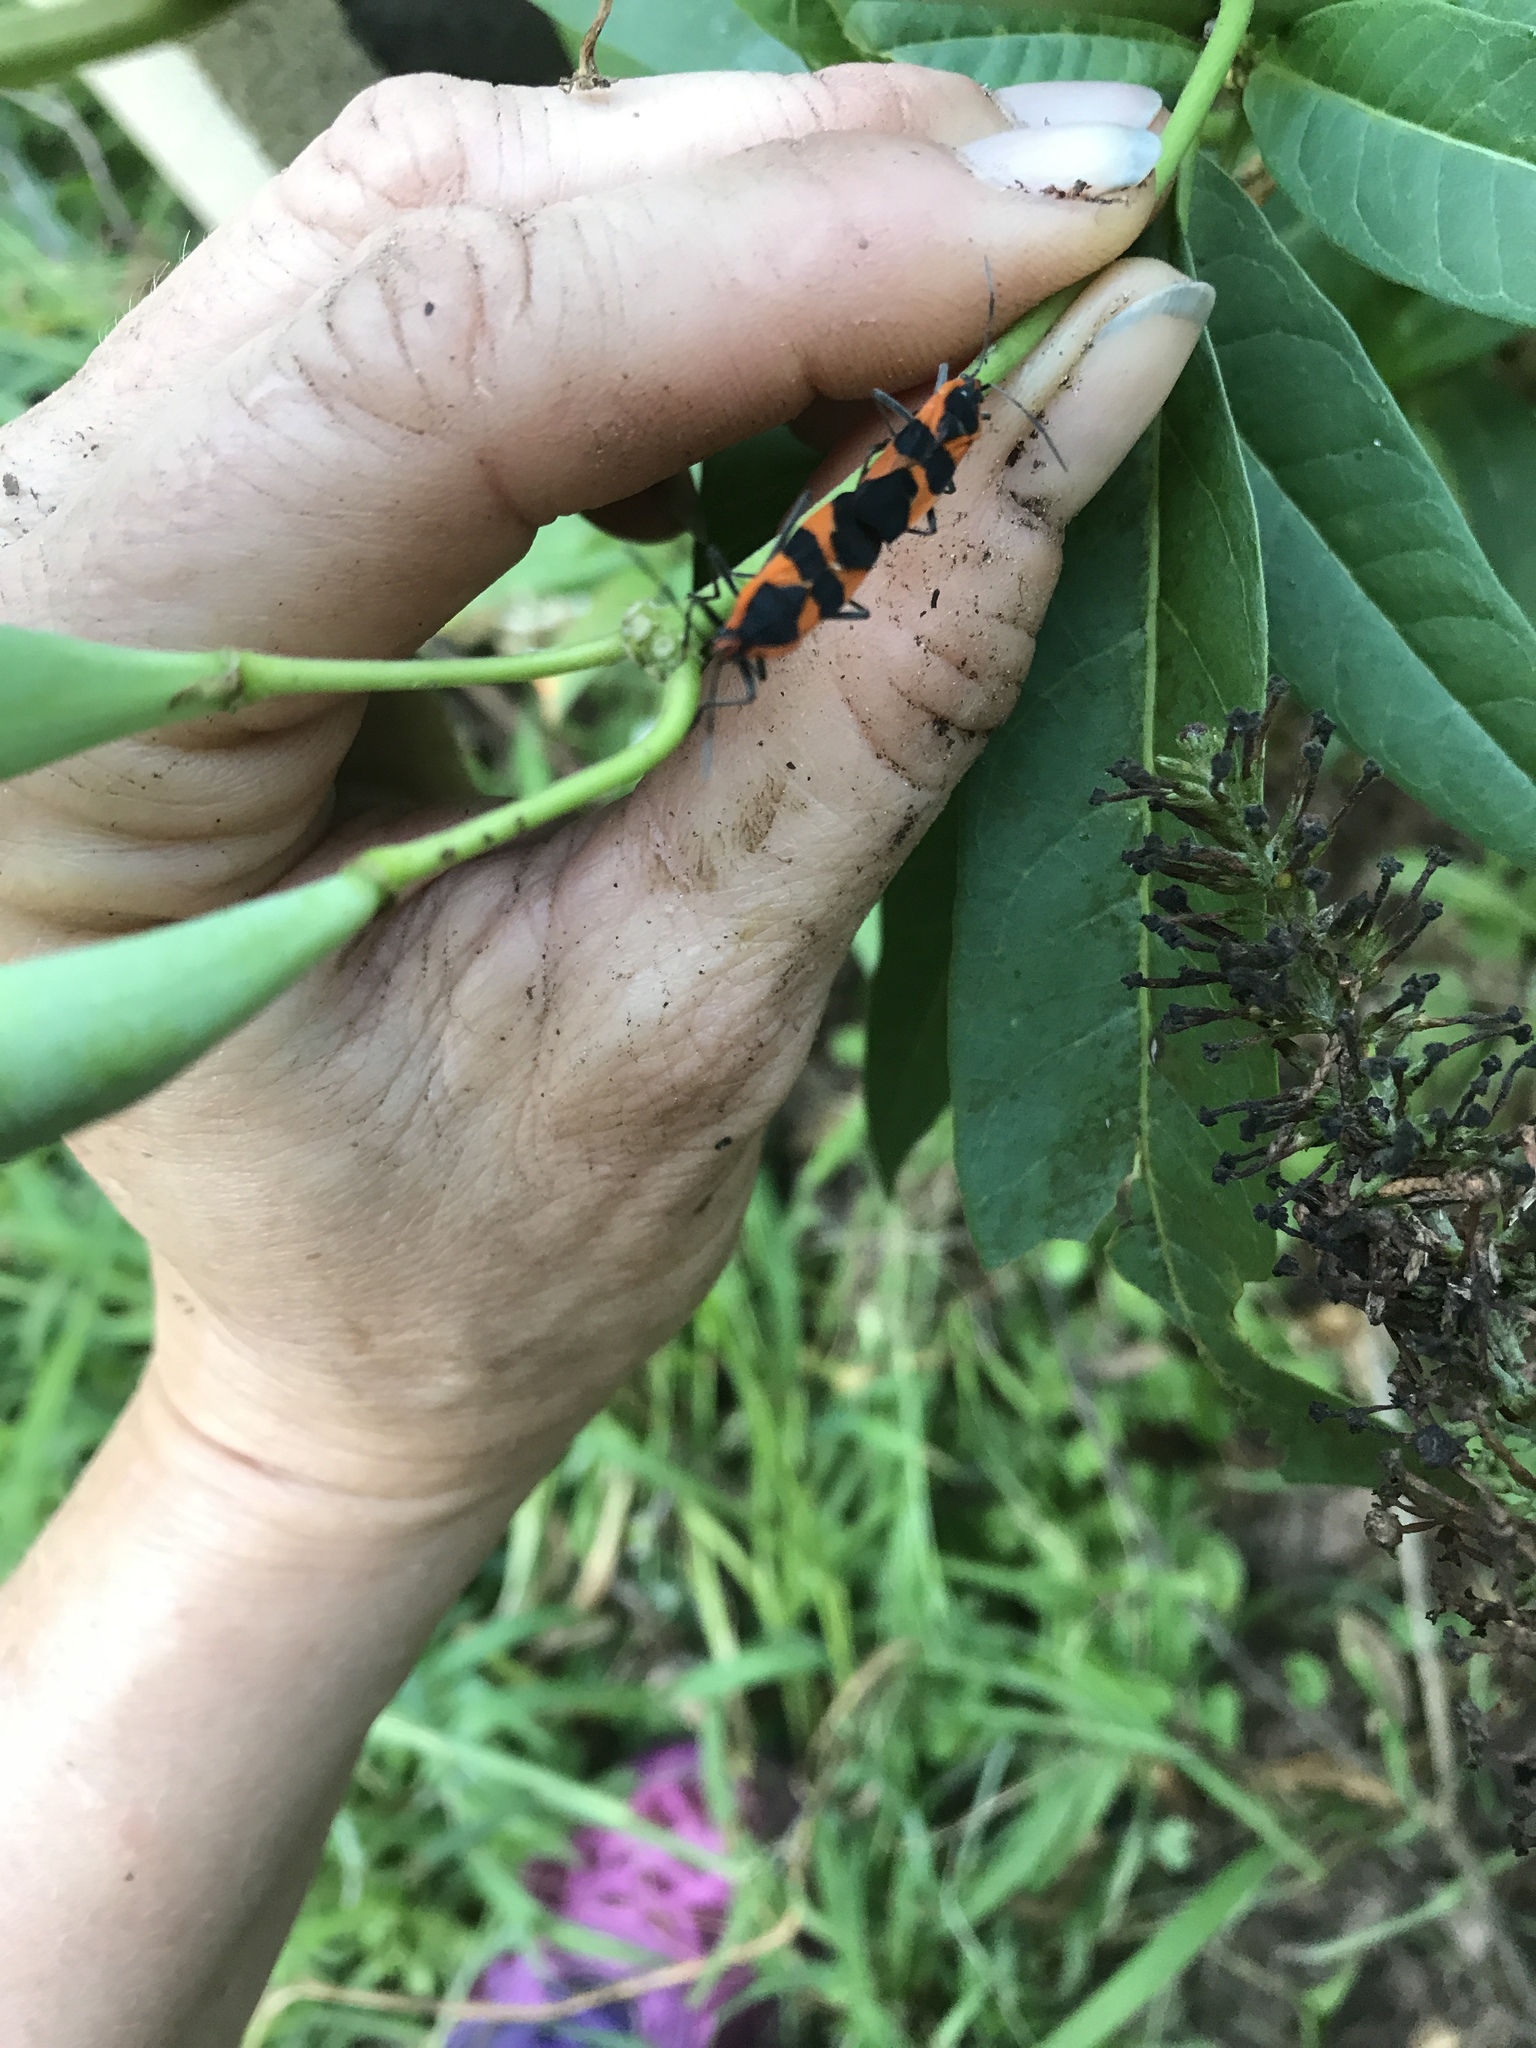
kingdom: Animalia
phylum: Arthropoda
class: Insecta
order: Hemiptera
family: Lygaeidae
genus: Oncopeltus
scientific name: Oncopeltus fasciatus
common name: Large milkweed bug
